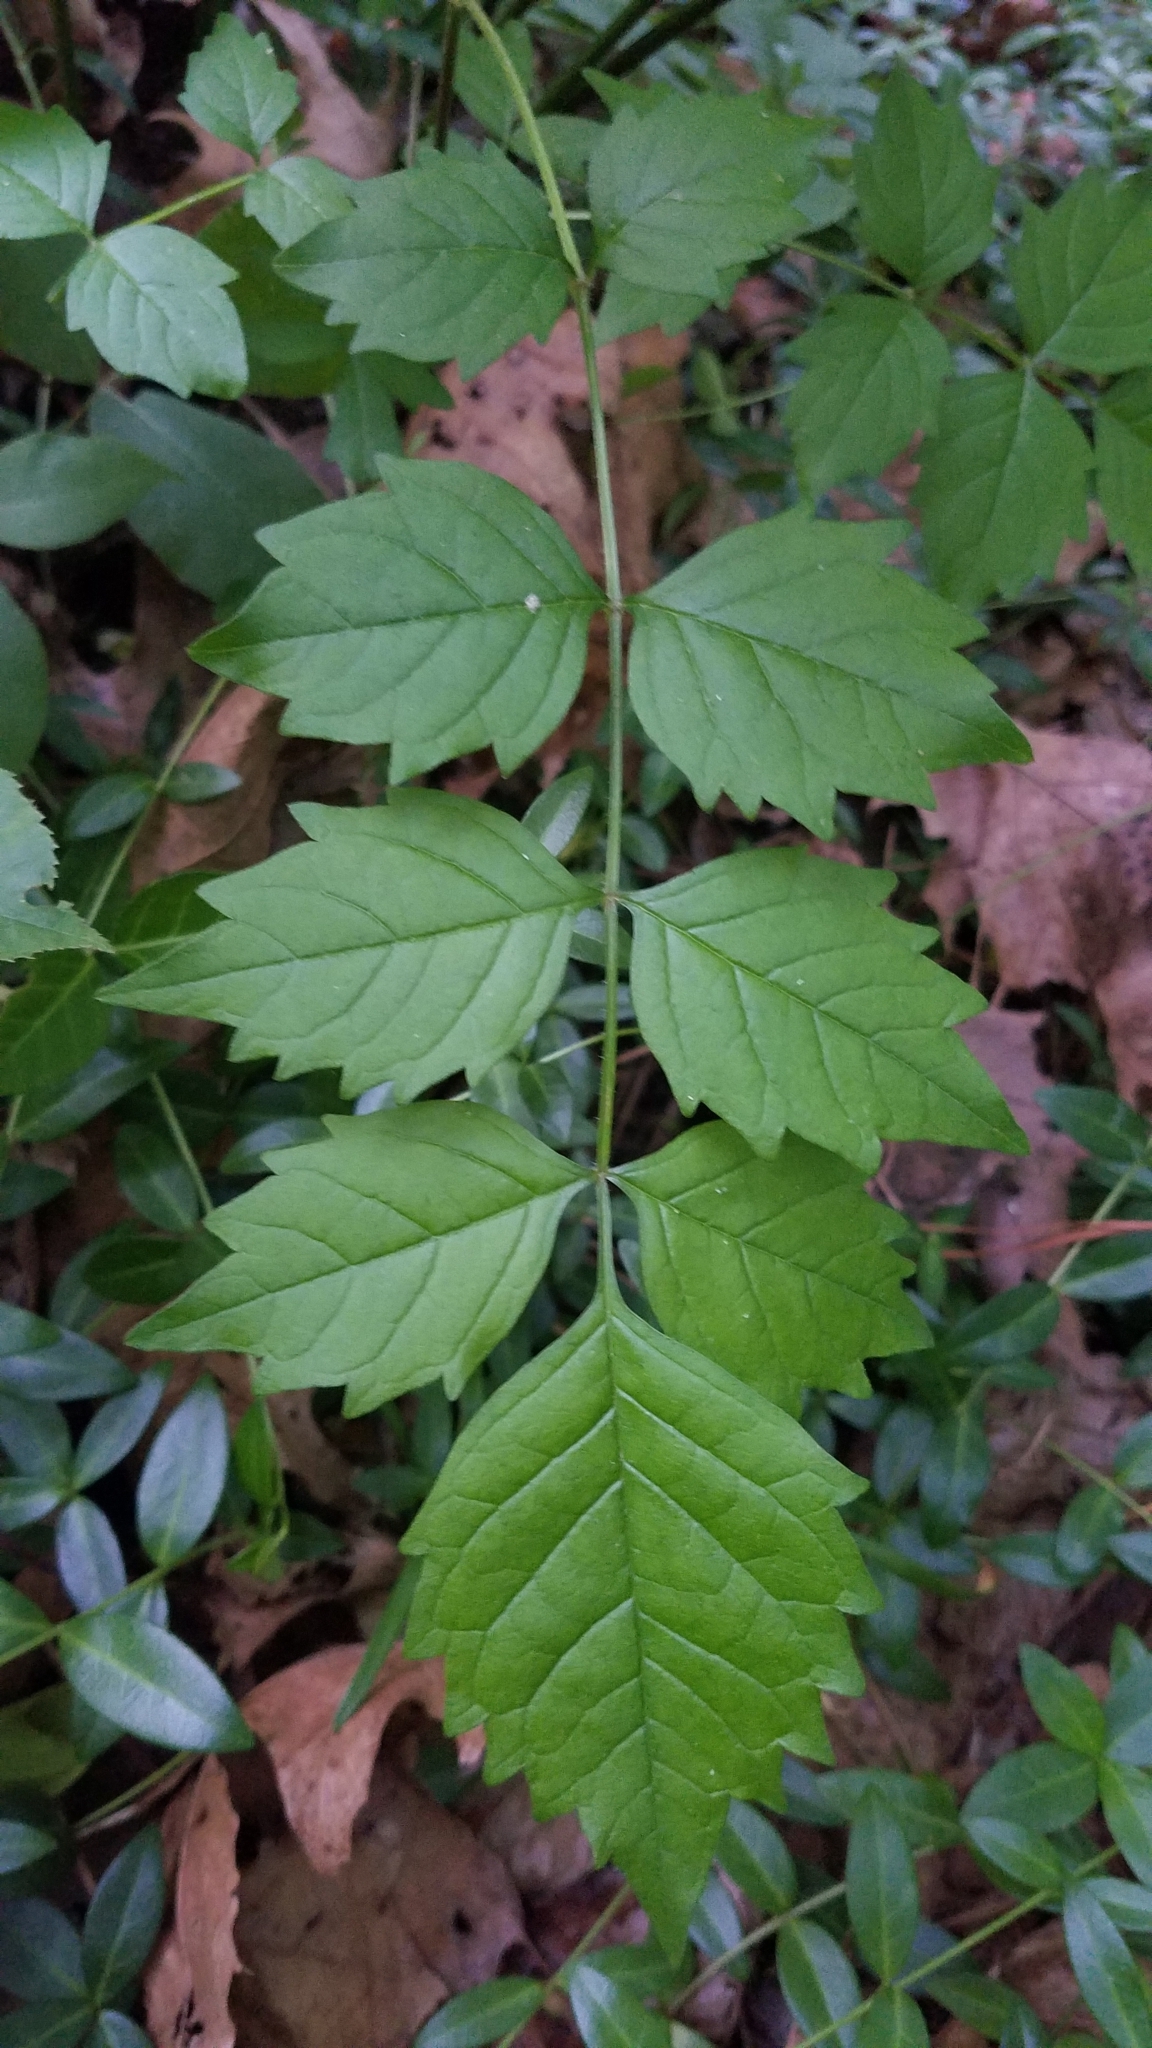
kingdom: Plantae
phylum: Tracheophyta
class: Magnoliopsida
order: Lamiales
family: Bignoniaceae
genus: Campsis
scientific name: Campsis radicans
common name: Trumpet-creeper
